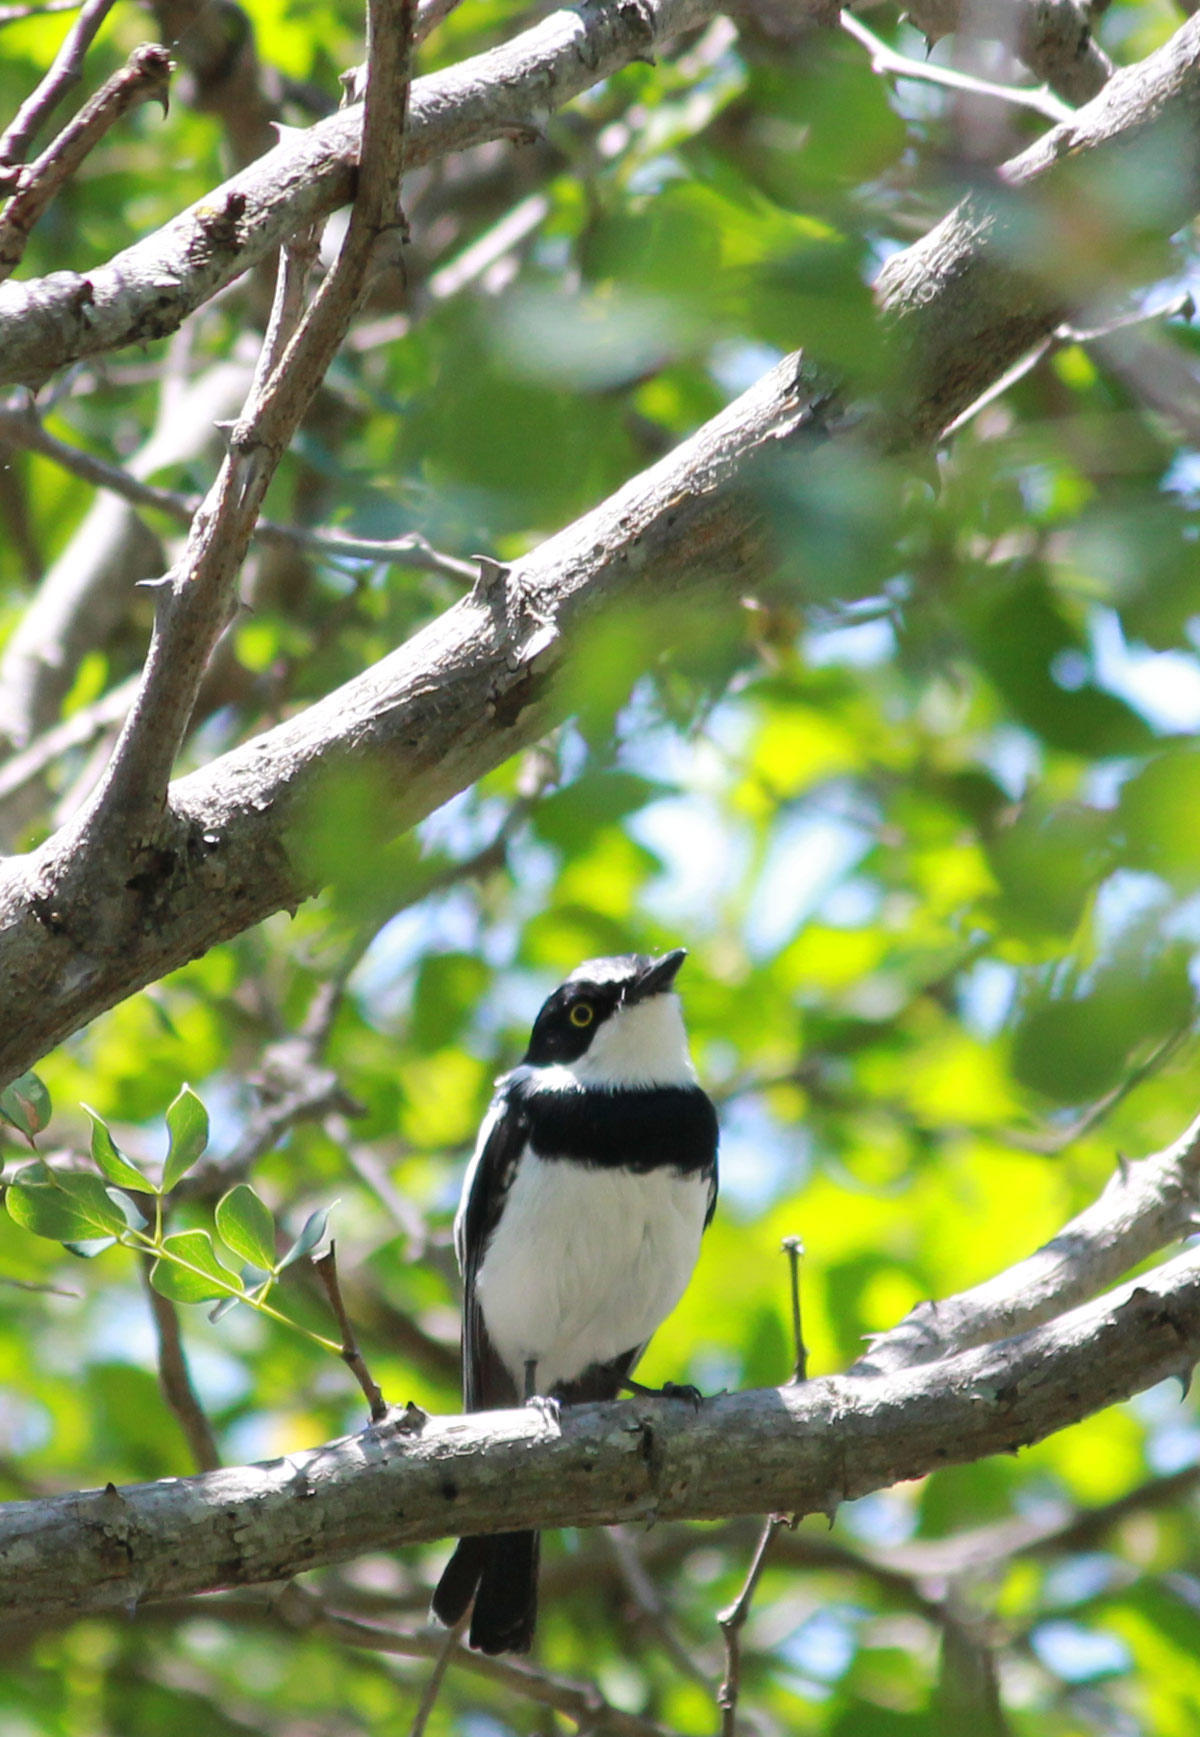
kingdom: Animalia
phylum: Chordata
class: Aves
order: Passeriformes
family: Platysteiridae
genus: Batis
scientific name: Batis molitor
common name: Chinspot batis
